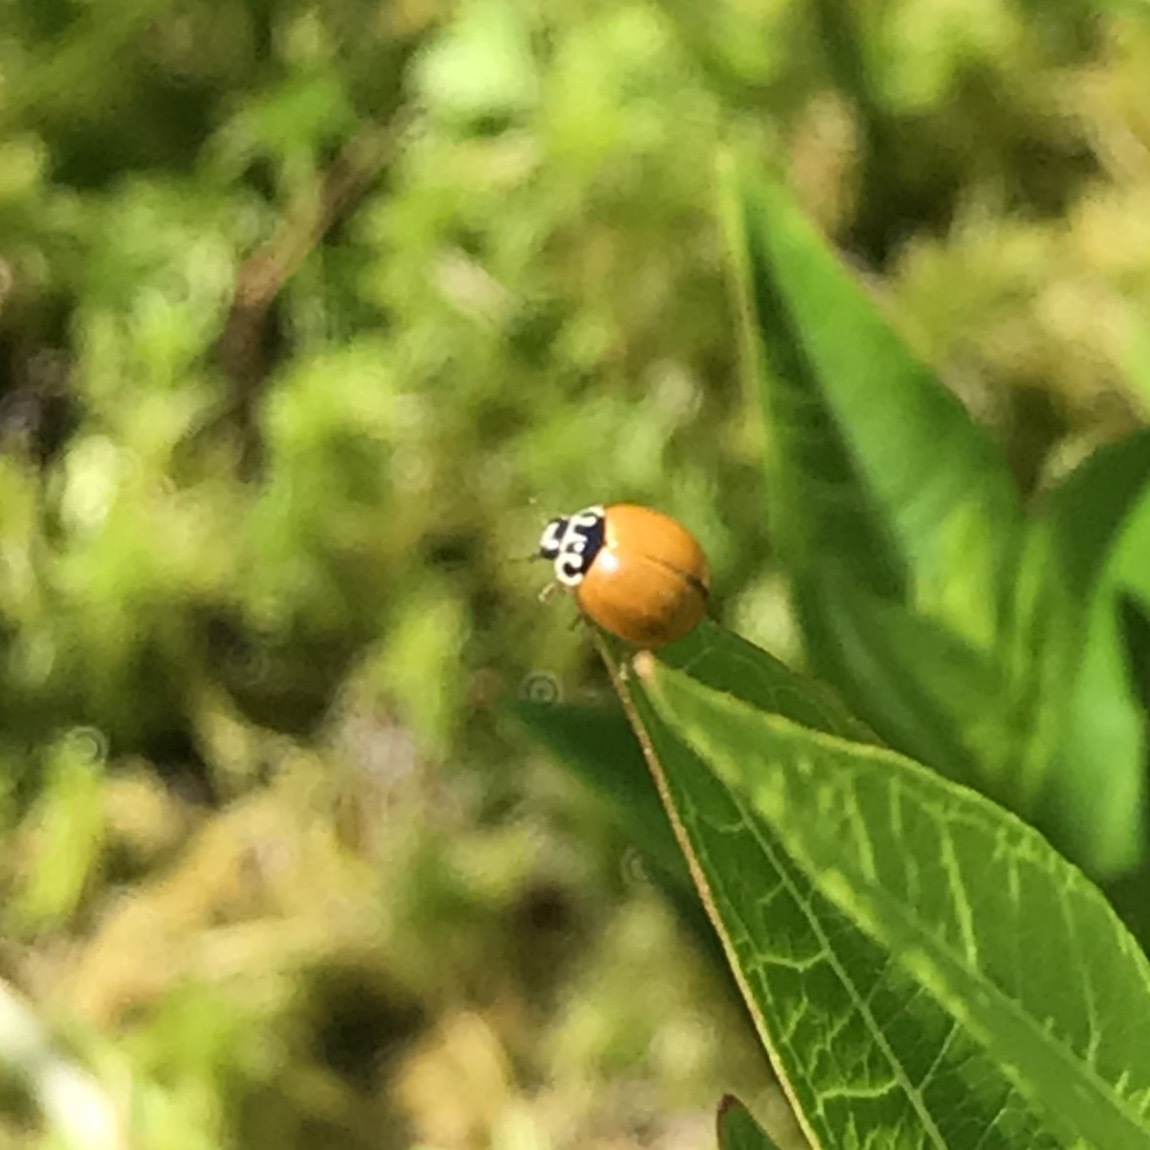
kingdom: Animalia
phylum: Arthropoda
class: Insecta
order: Coleoptera
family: Coccinellidae
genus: Cycloneda
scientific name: Cycloneda munda
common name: Polished lady beetle
